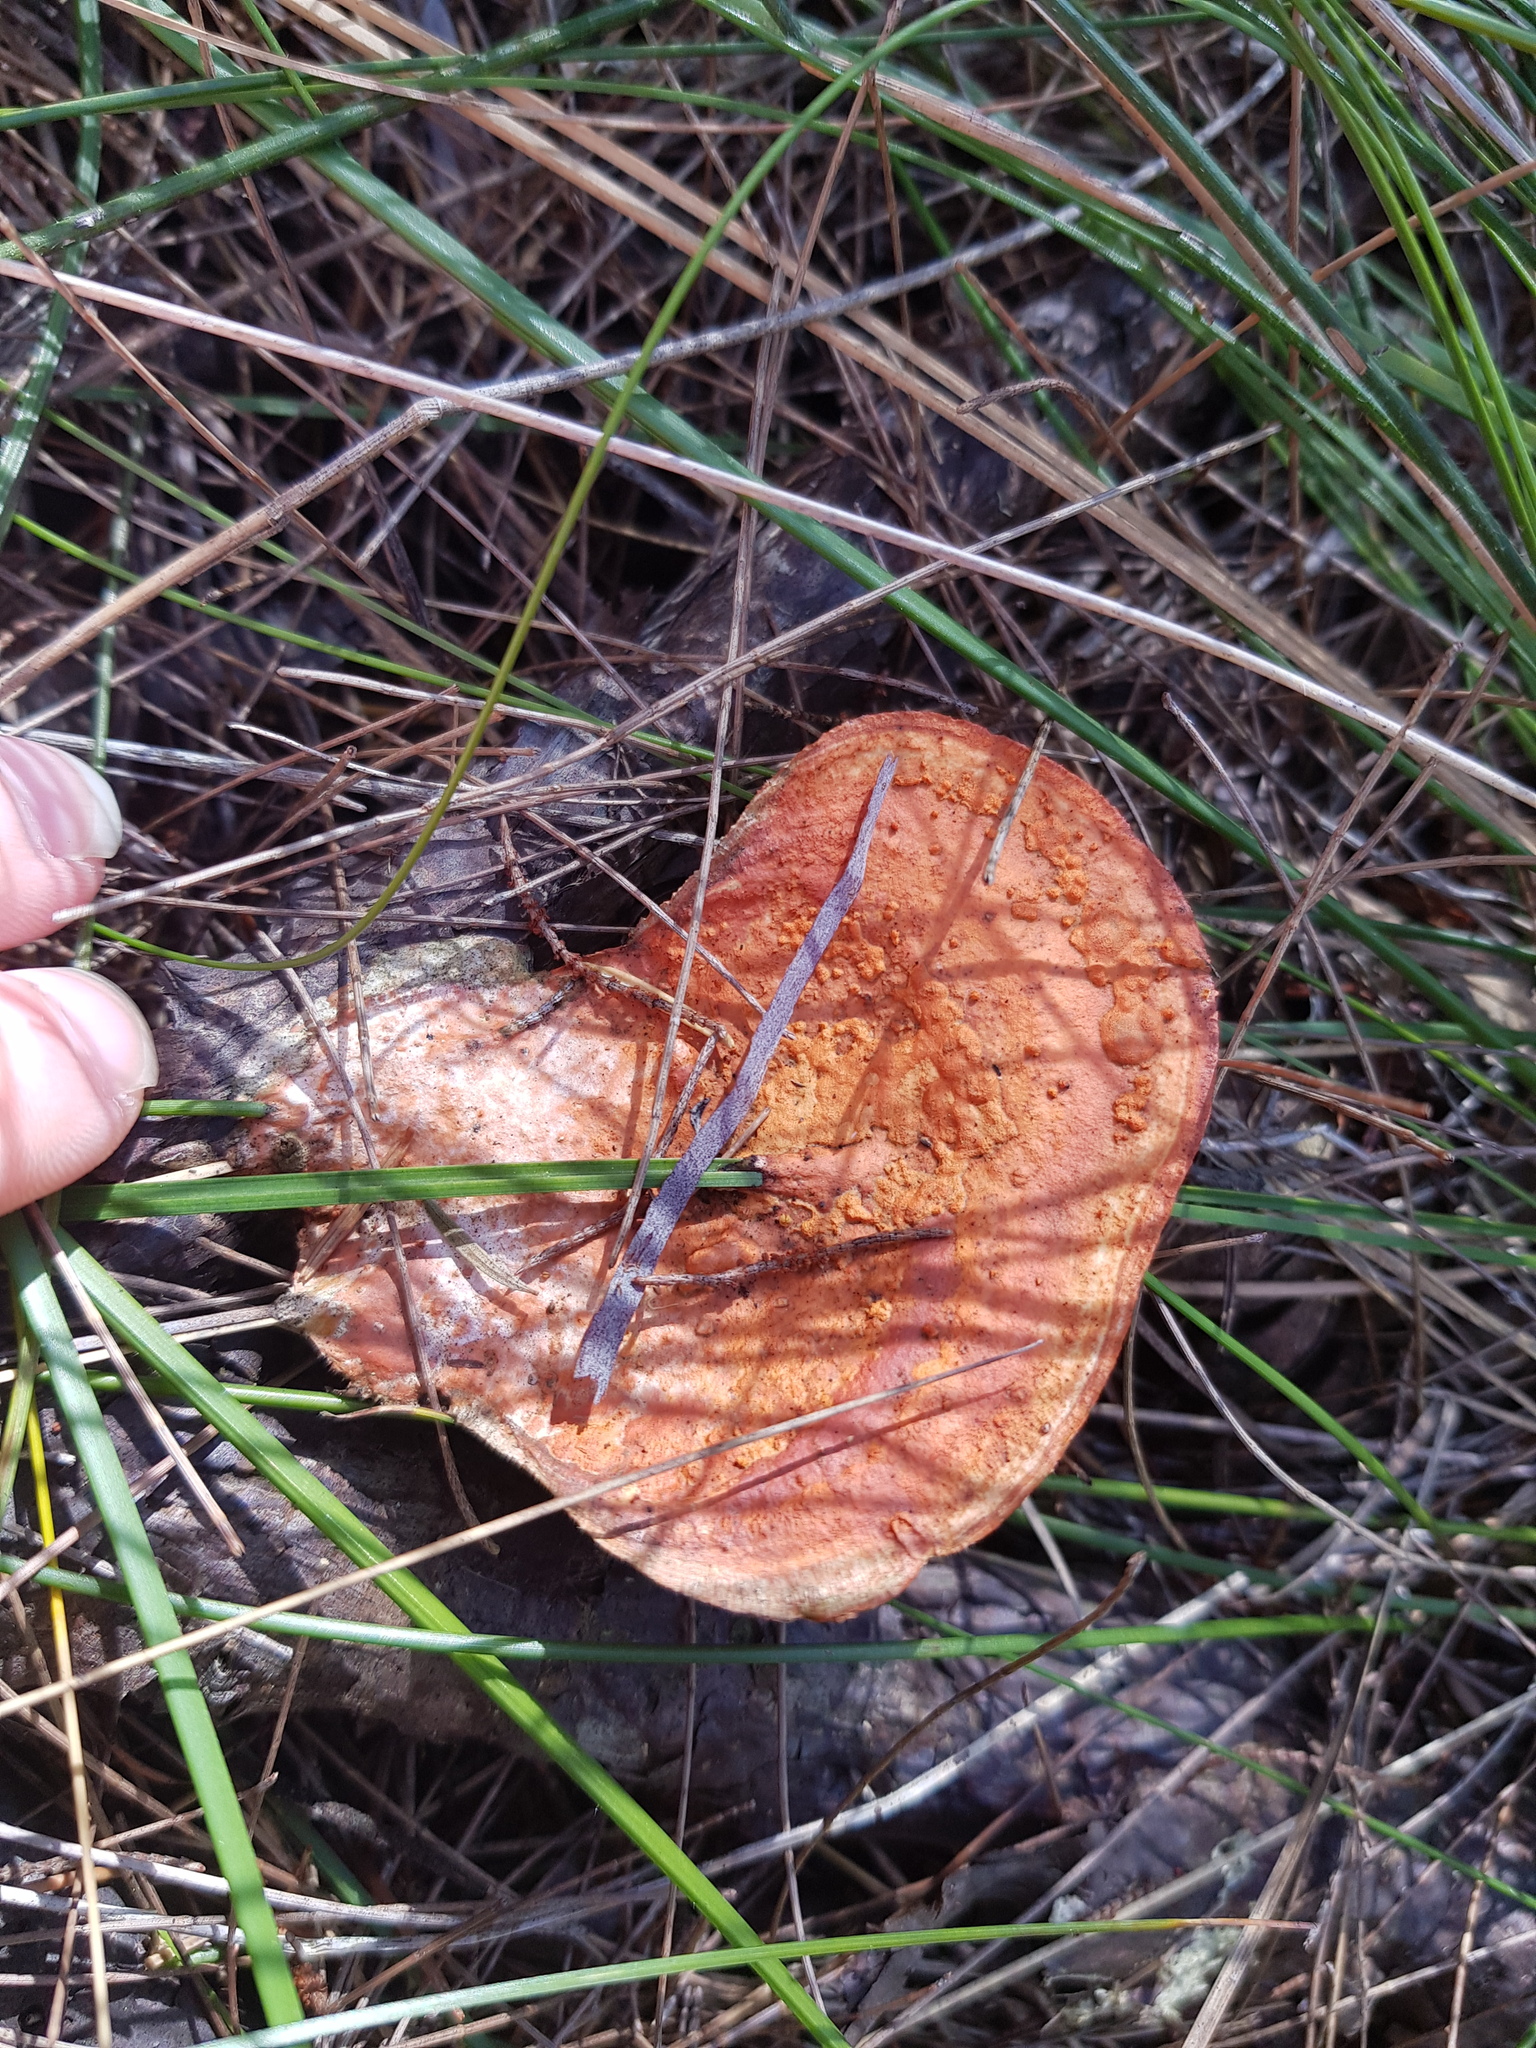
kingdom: Fungi
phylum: Basidiomycota
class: Agaricomycetes
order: Polyporales
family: Polyporaceae
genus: Trametes
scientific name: Trametes coccinea
